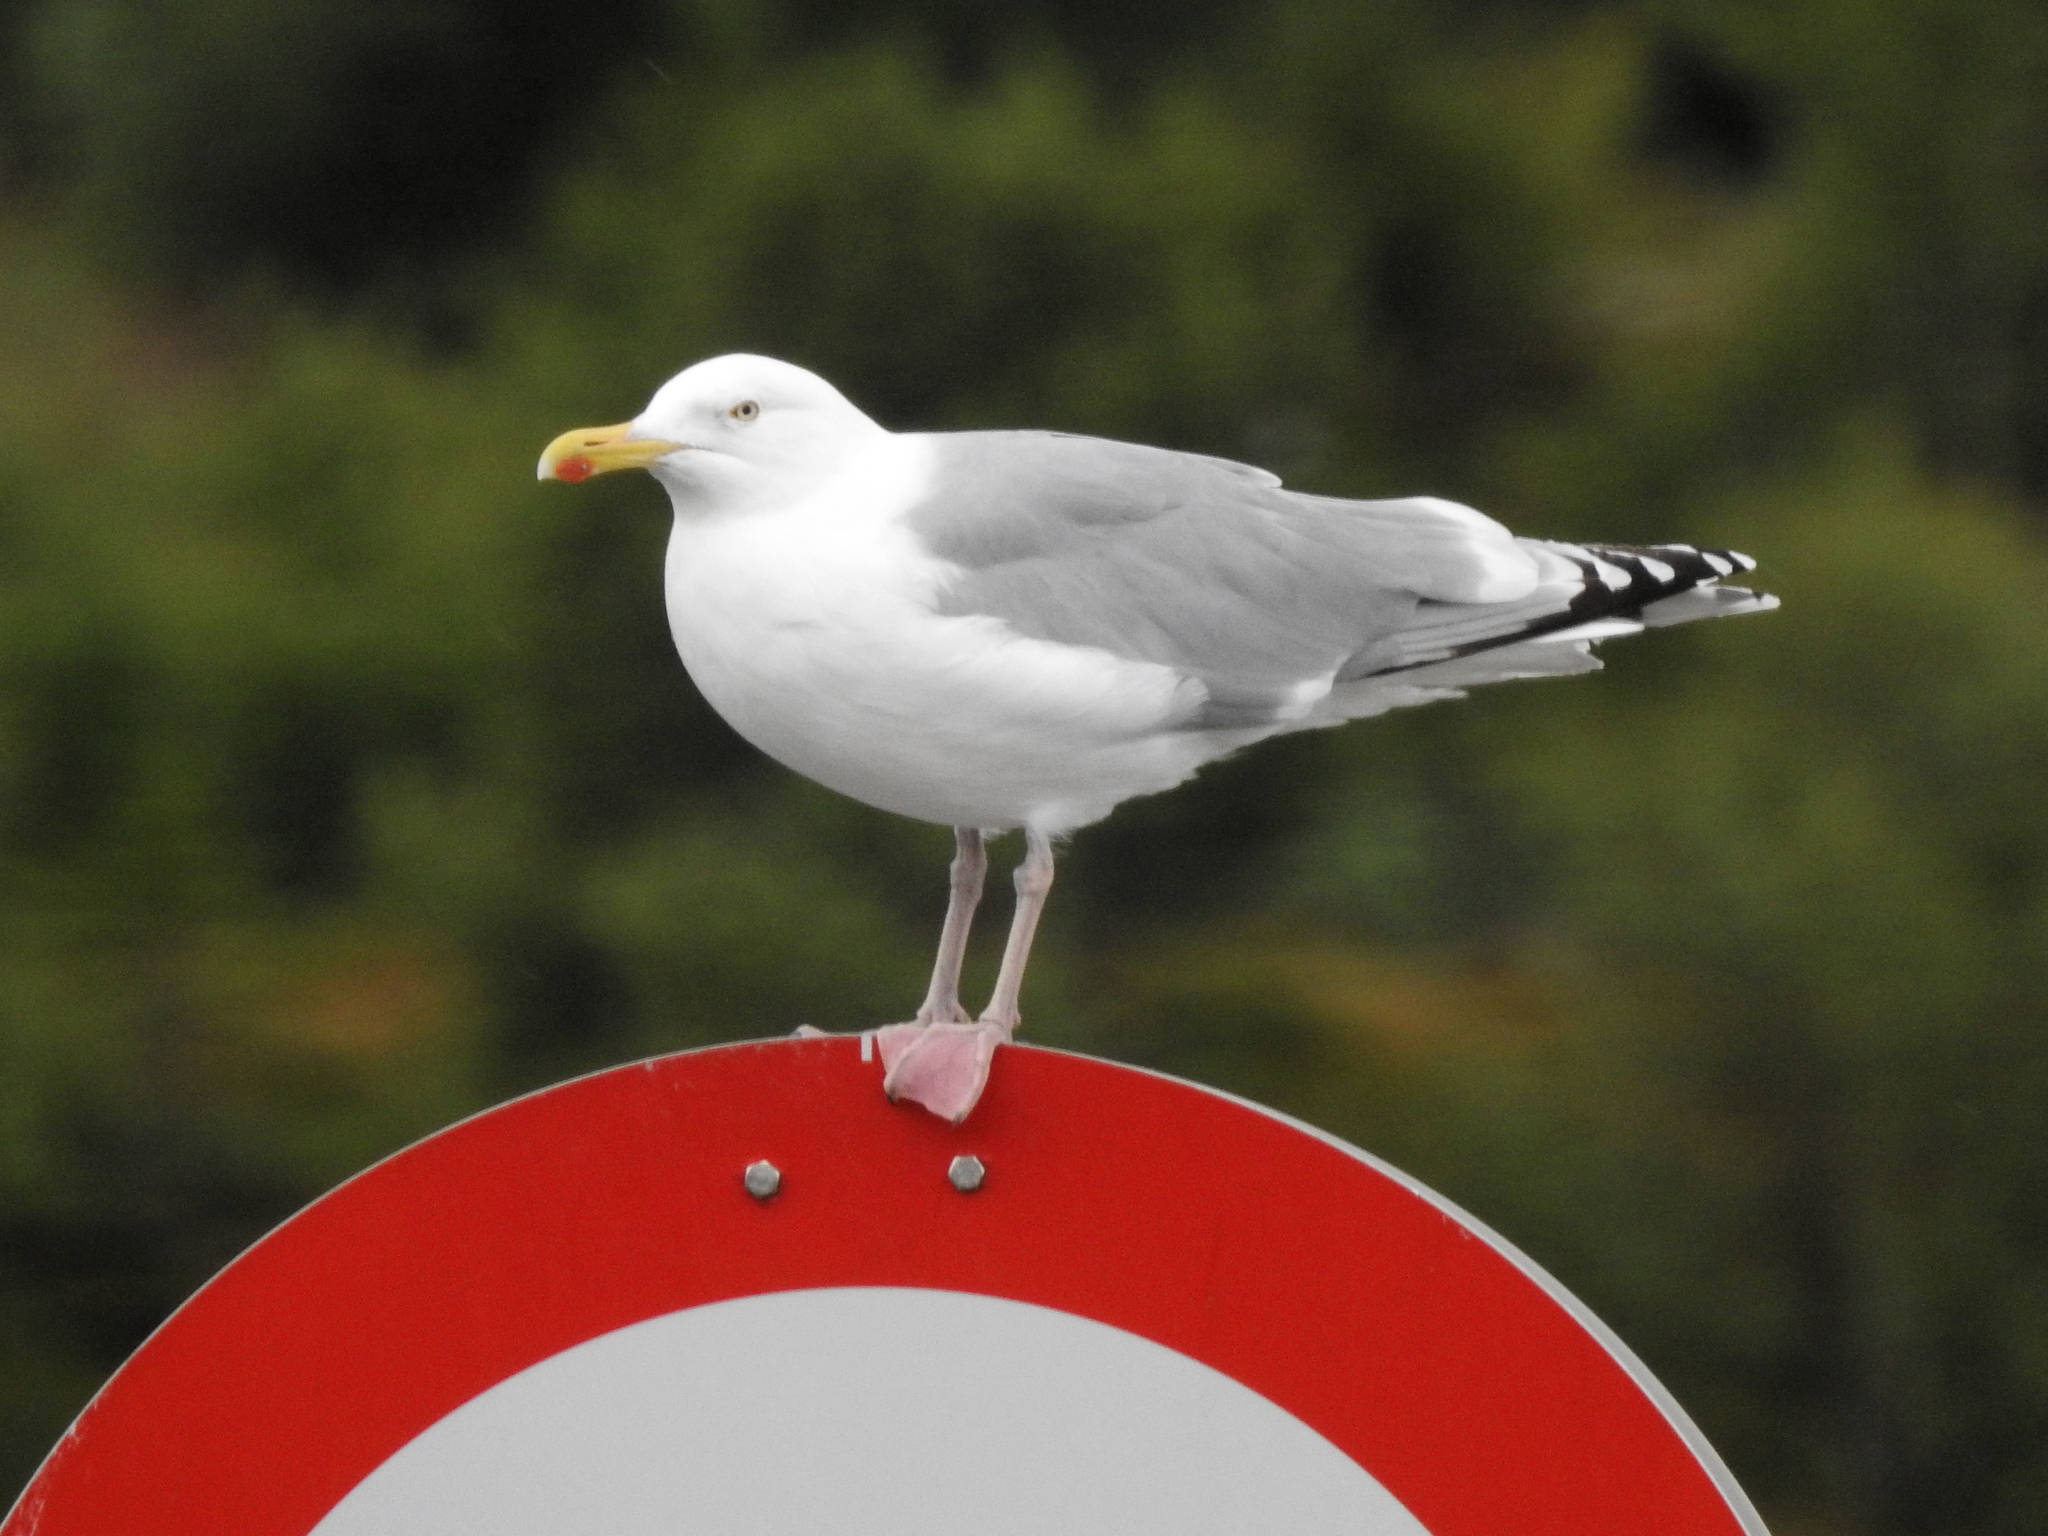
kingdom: Animalia
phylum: Chordata
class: Aves
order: Charadriiformes
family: Laridae
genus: Larus
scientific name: Larus argentatus
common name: Herring gull
